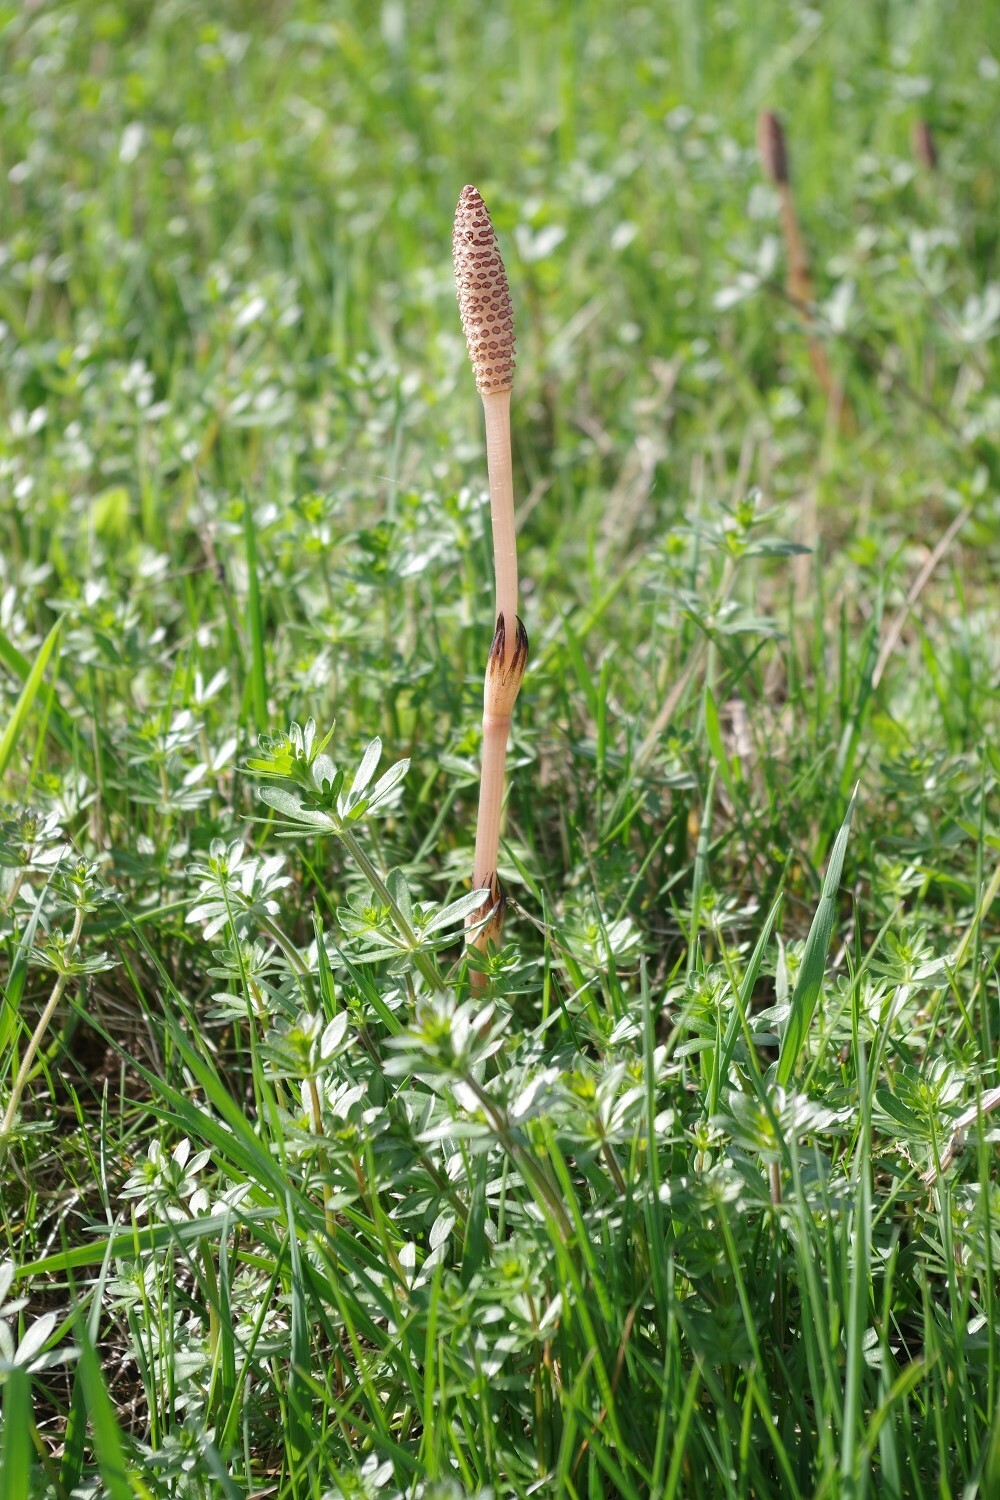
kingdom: Plantae
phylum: Tracheophyta
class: Polypodiopsida
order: Equisetales
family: Equisetaceae
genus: Equisetum
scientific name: Equisetum arvense
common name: Field horsetail
